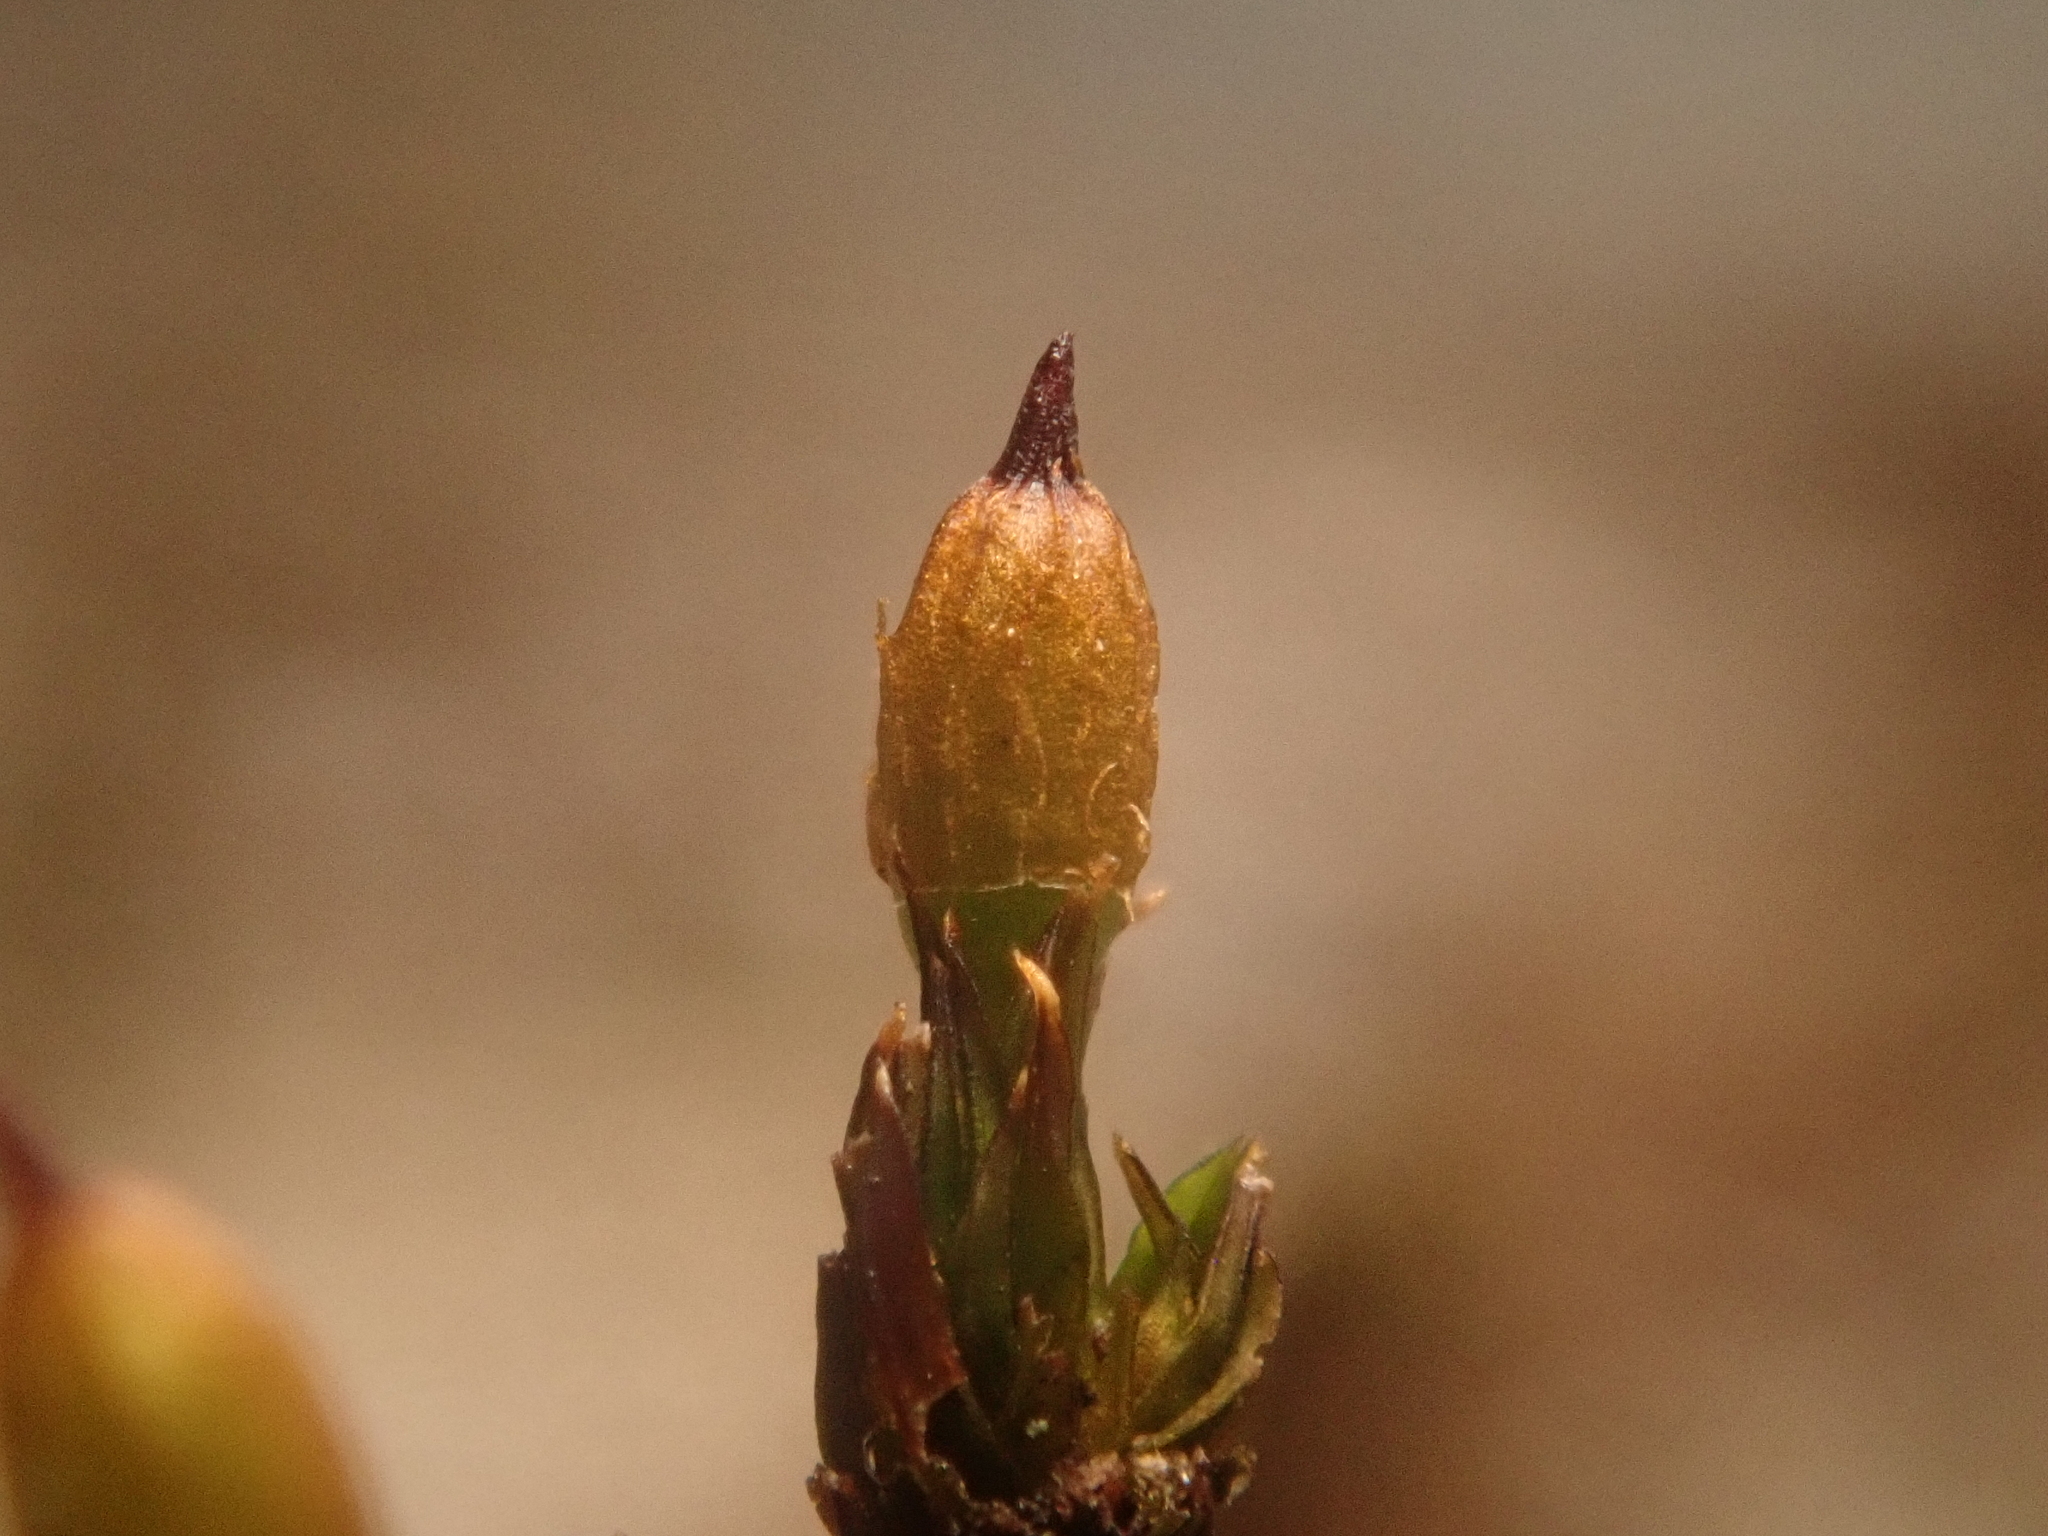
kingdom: Plantae
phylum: Bryophyta
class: Bryopsida
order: Orthotrichales
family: Orthotrichaceae
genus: Orthotrichum
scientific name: Orthotrichum anomalum
